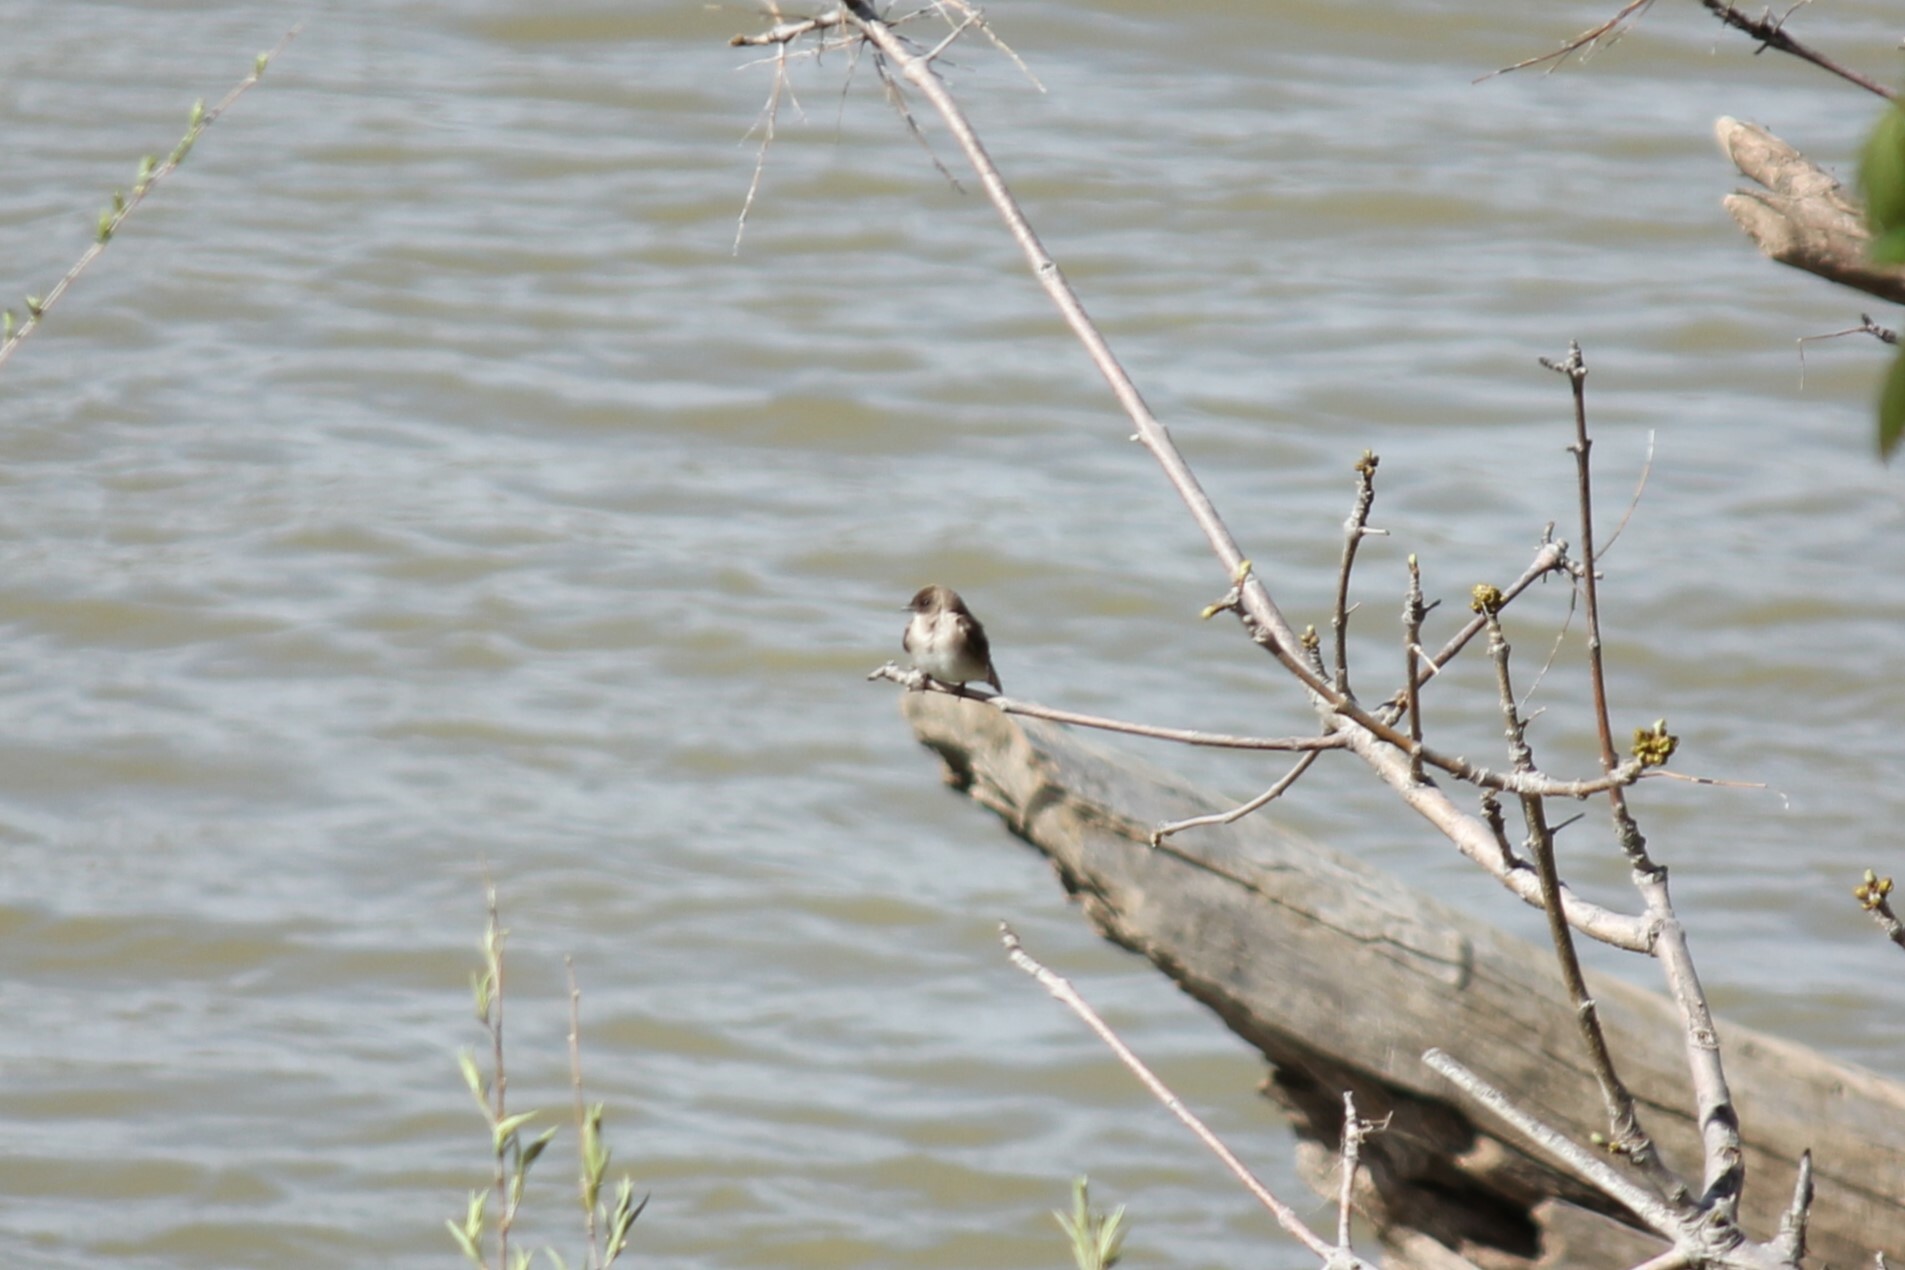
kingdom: Animalia
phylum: Chordata
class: Aves
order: Passeriformes
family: Hirundinidae
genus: Stelgidopteryx
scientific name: Stelgidopteryx serripennis
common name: Northern rough-winged swallow
